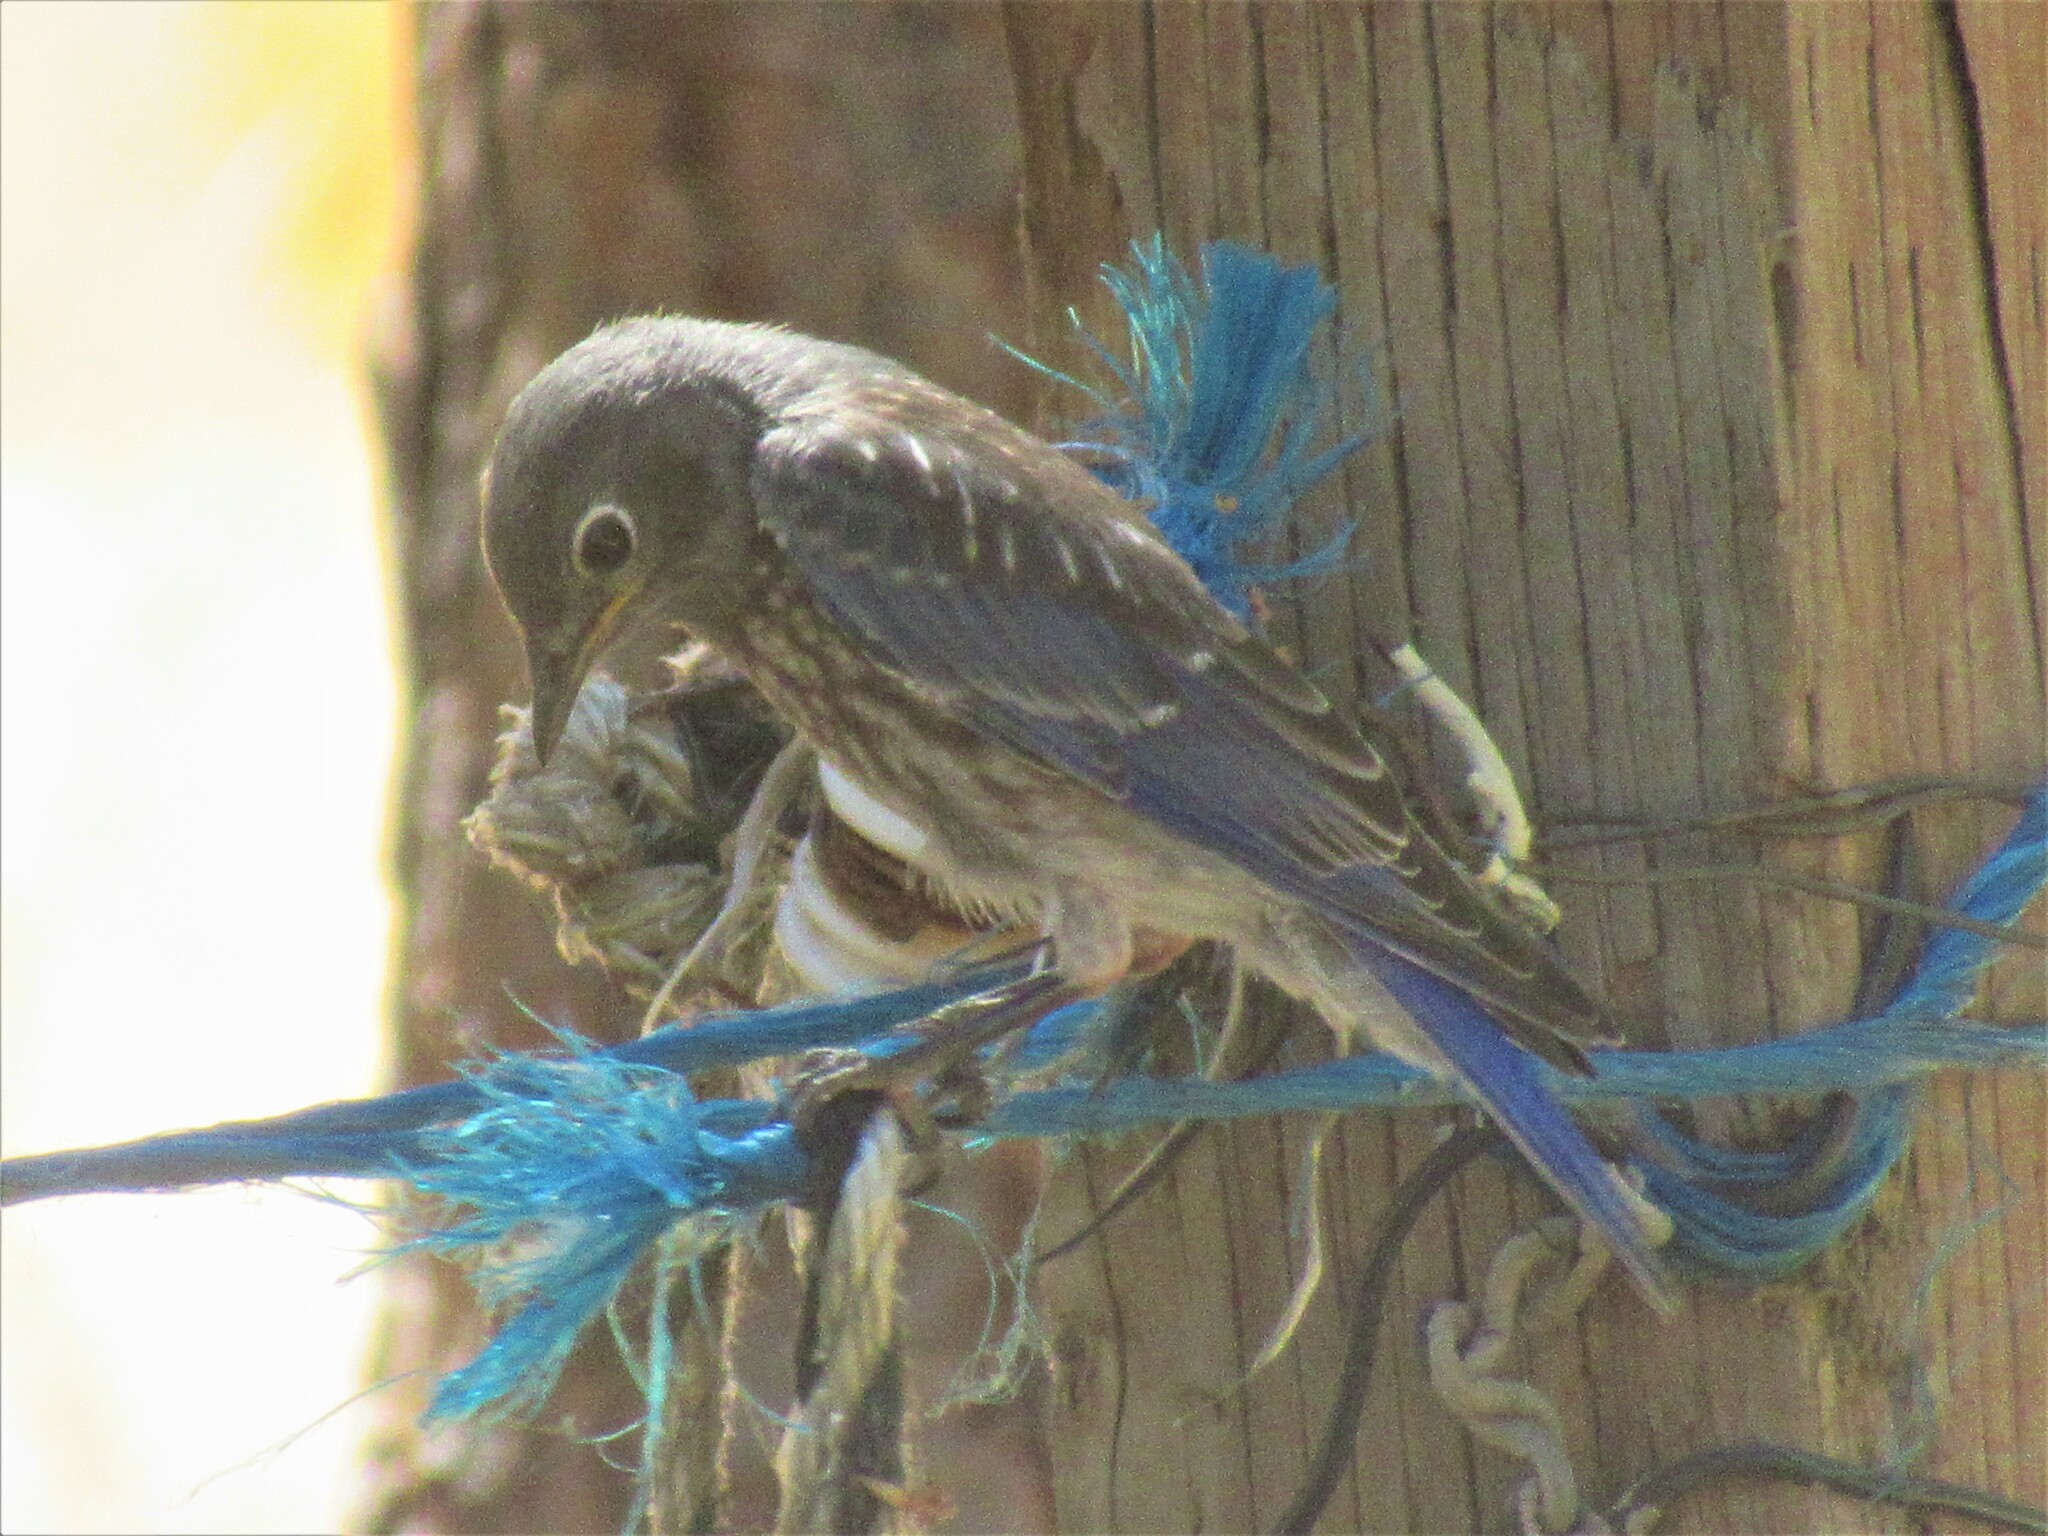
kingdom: Animalia
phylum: Chordata
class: Aves
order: Passeriformes
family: Turdidae
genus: Sialia
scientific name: Sialia mexicana
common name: Western bluebird
